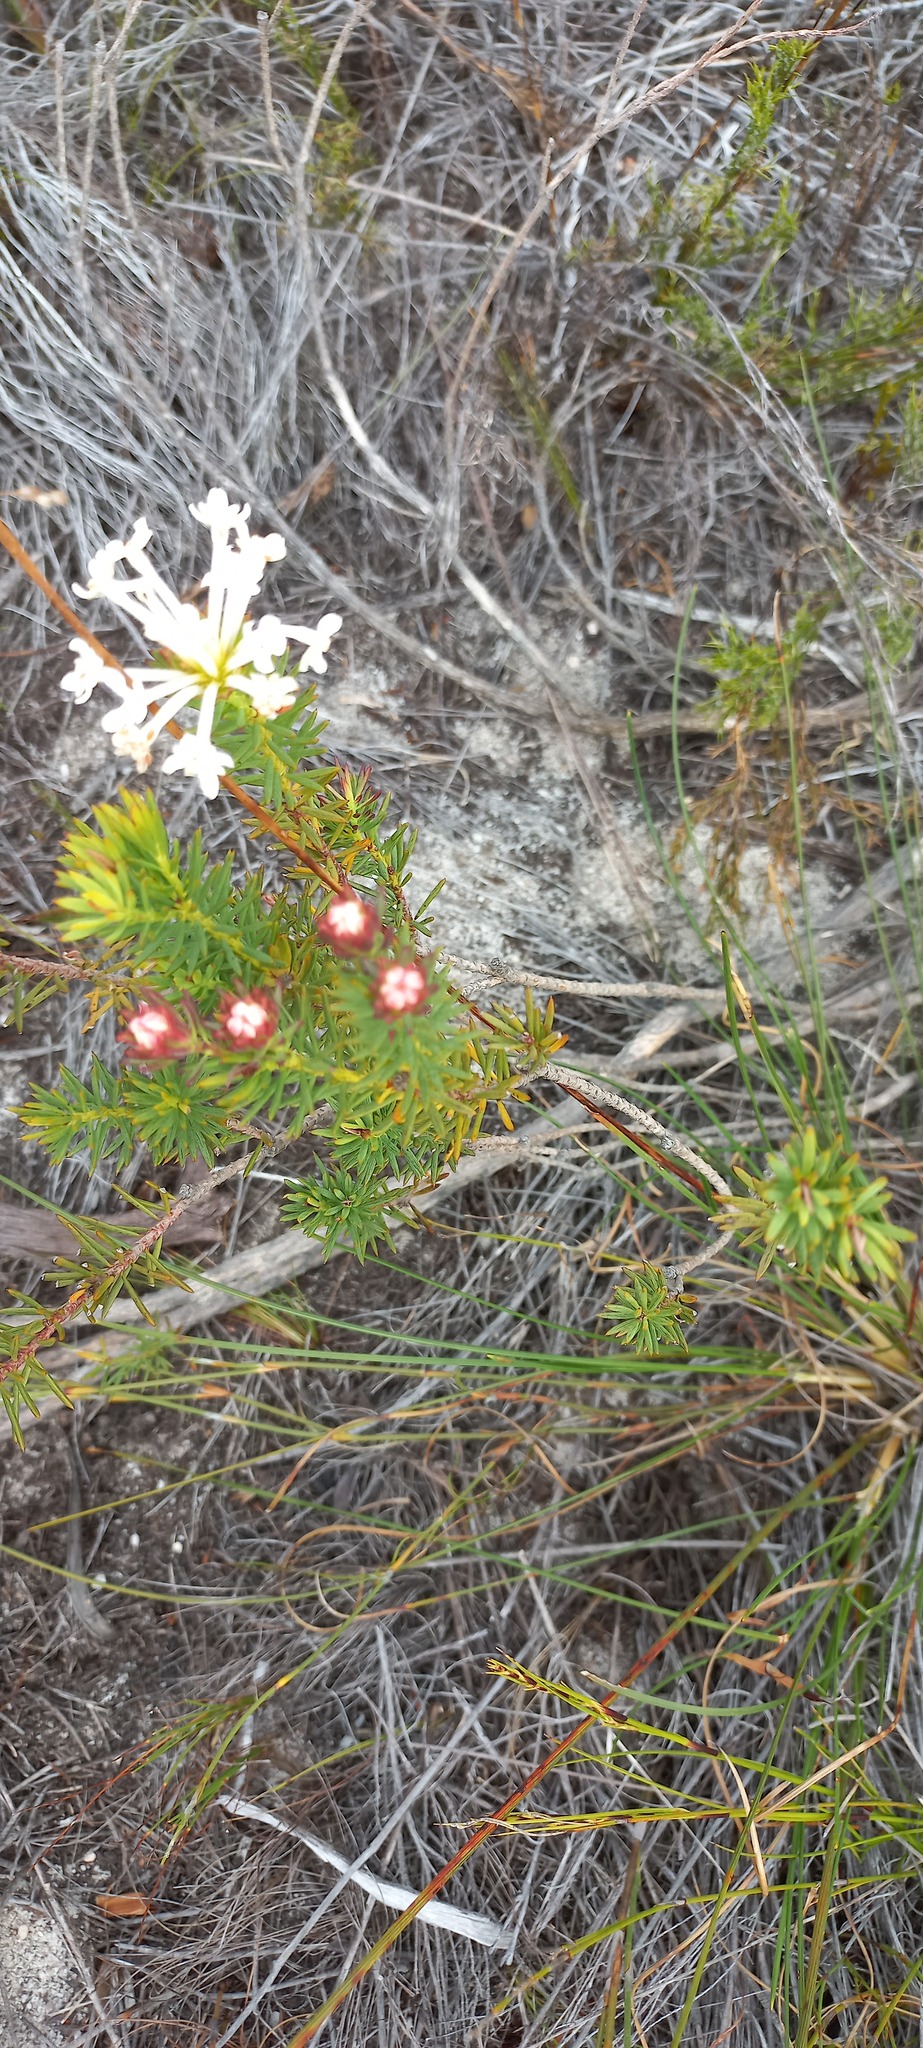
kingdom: Plantae
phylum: Tracheophyta
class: Magnoliopsida
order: Malvales
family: Thymelaeaceae
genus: Gnidia
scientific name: Gnidia pinifolia
